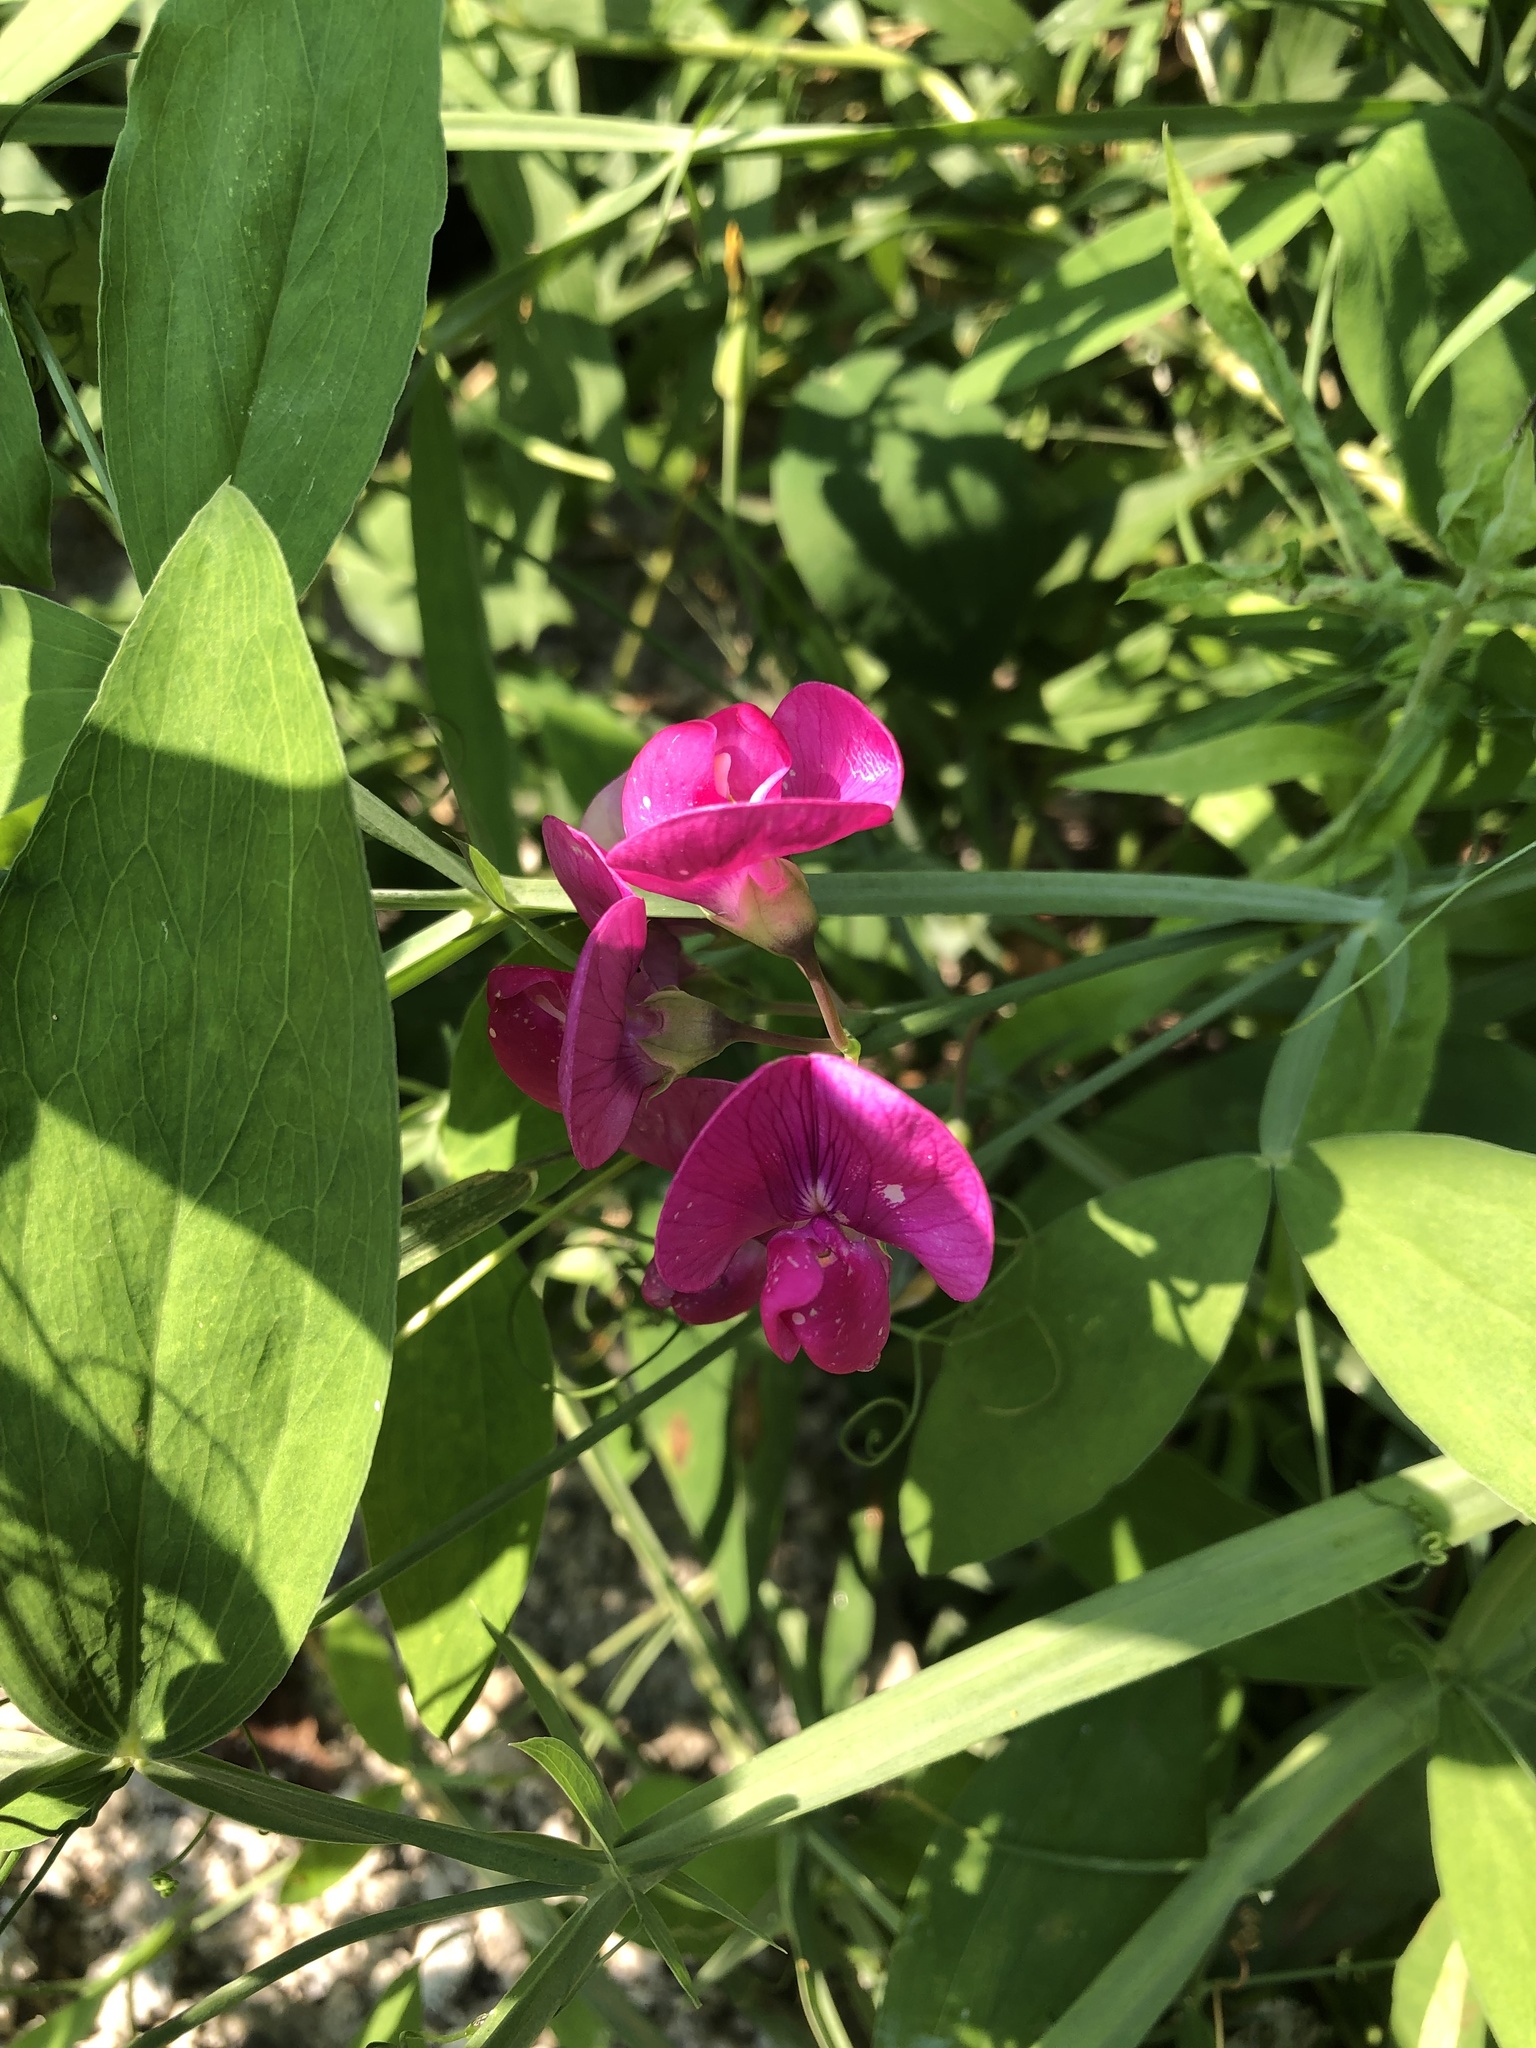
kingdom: Plantae
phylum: Tracheophyta
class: Magnoliopsida
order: Fabales
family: Fabaceae
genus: Lathyrus
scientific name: Lathyrus latifolius
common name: Perennial pea
